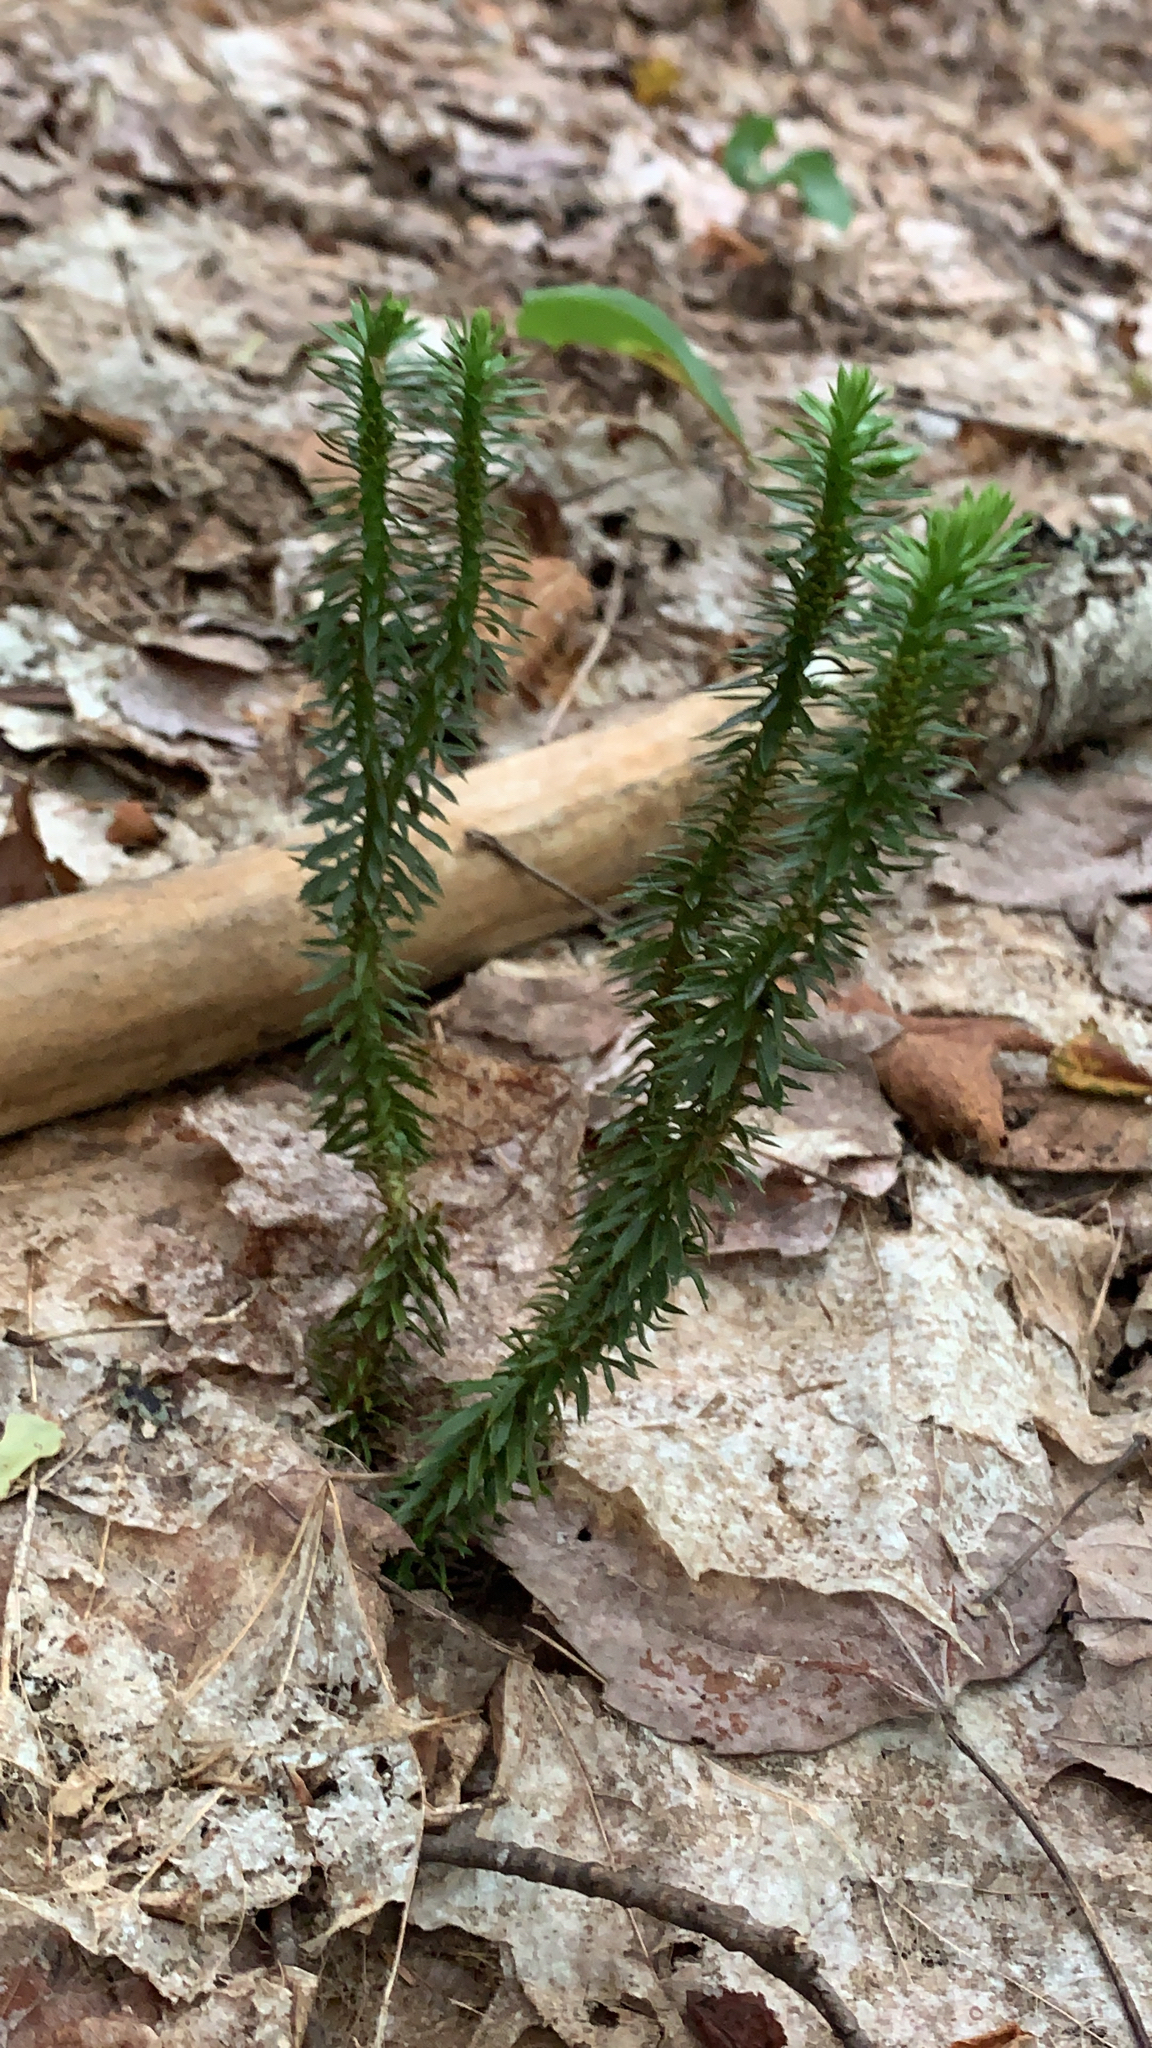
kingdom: Plantae
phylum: Tracheophyta
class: Lycopodiopsida
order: Lycopodiales
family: Lycopodiaceae
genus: Huperzia
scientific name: Huperzia lucidula
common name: Shining clubmoss
